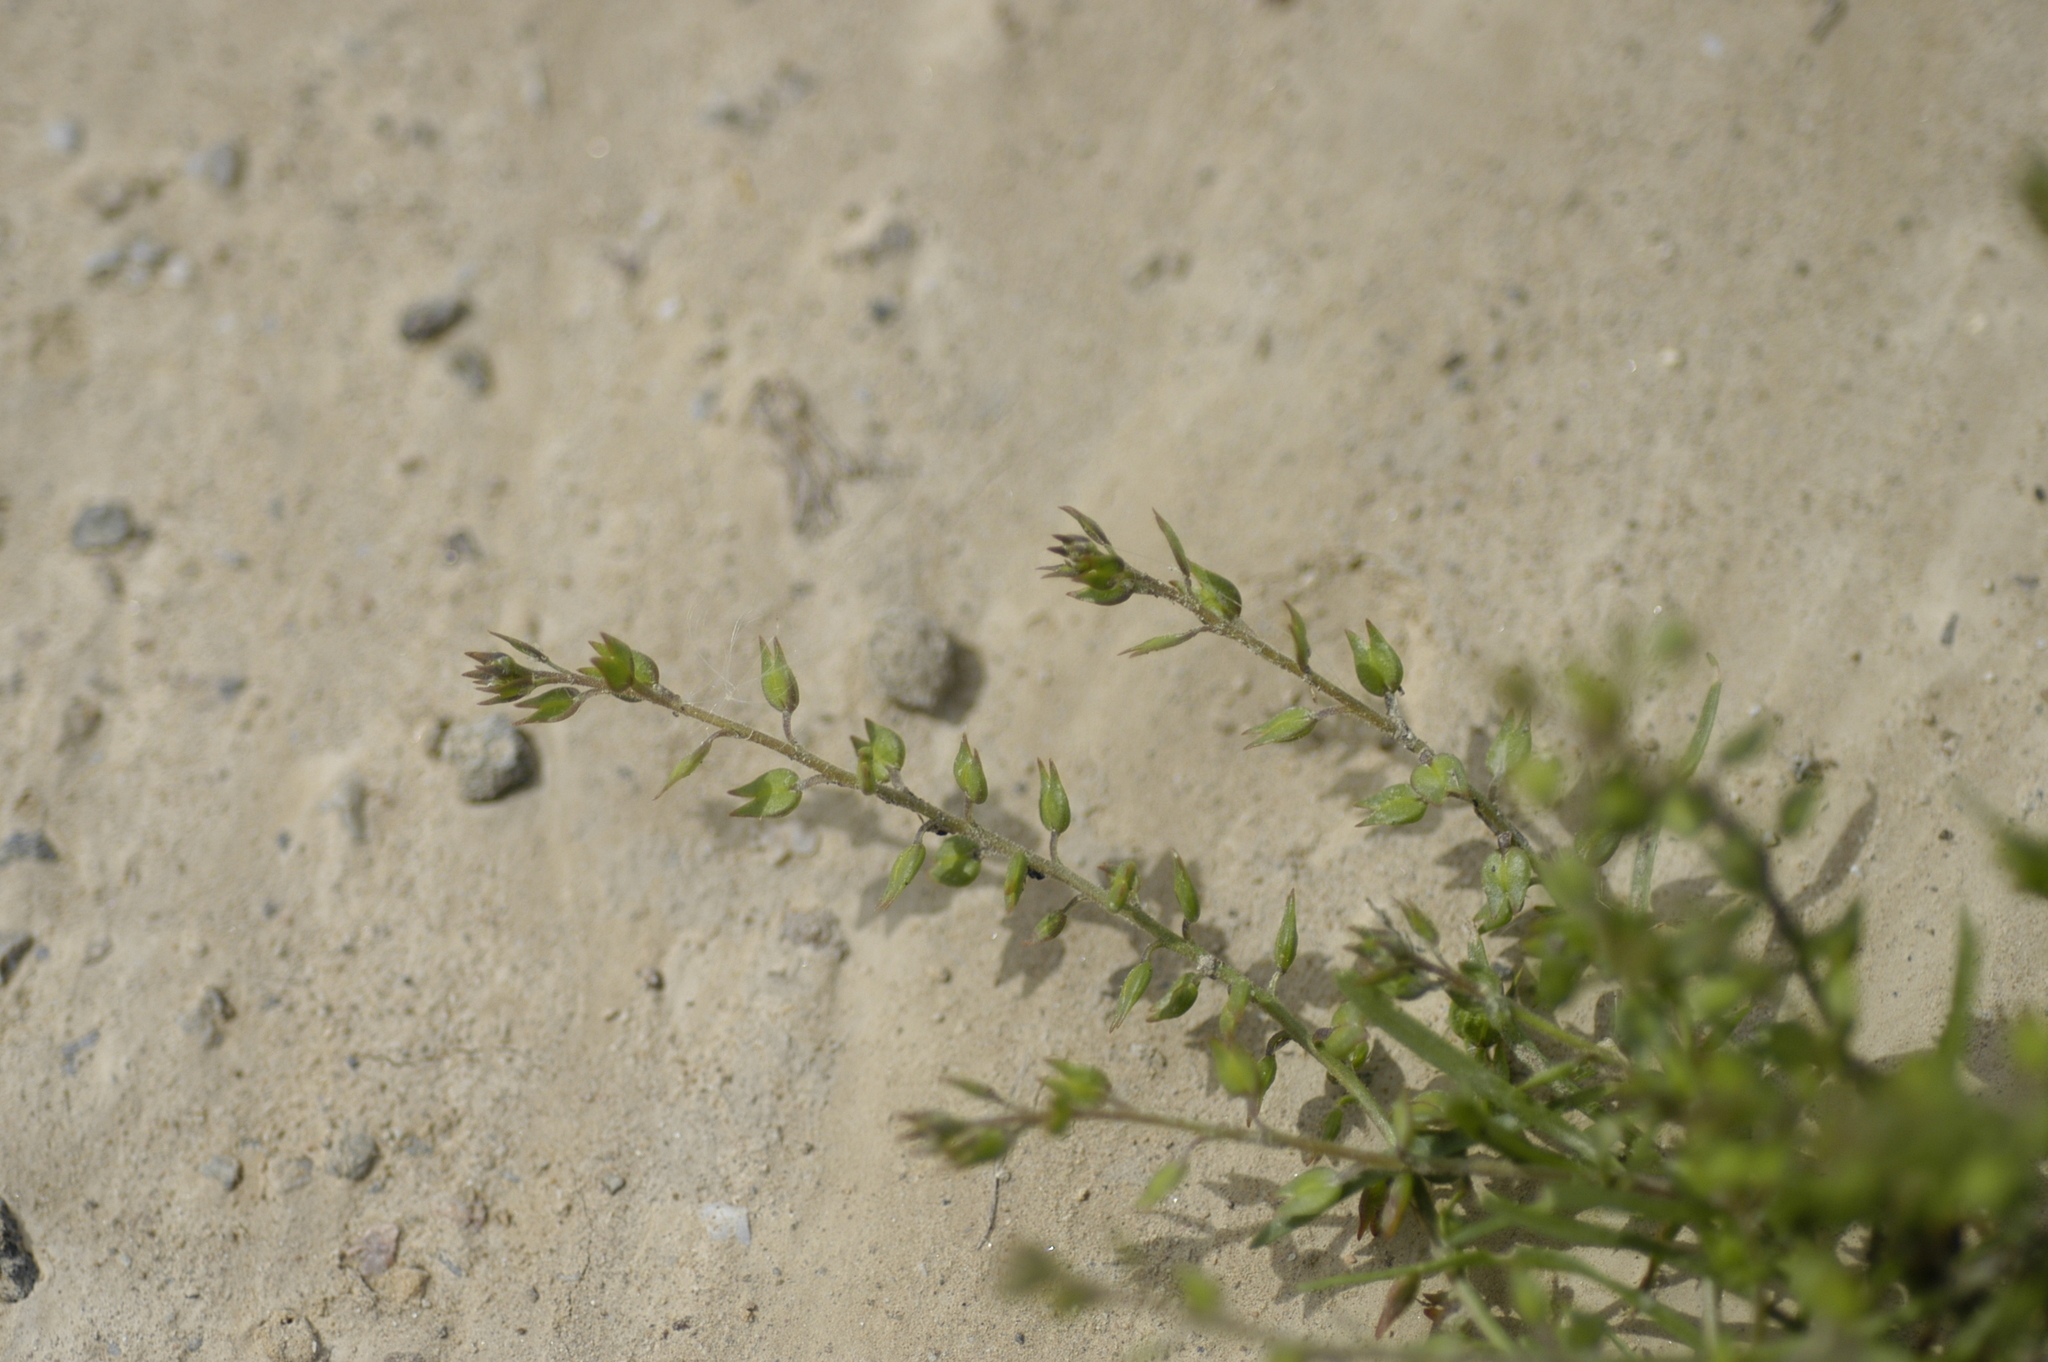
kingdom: Plantae
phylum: Tracheophyta
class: Magnoliopsida
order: Brassicales
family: Brassicaceae
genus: Lepidium
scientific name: Lepidium acutidens
